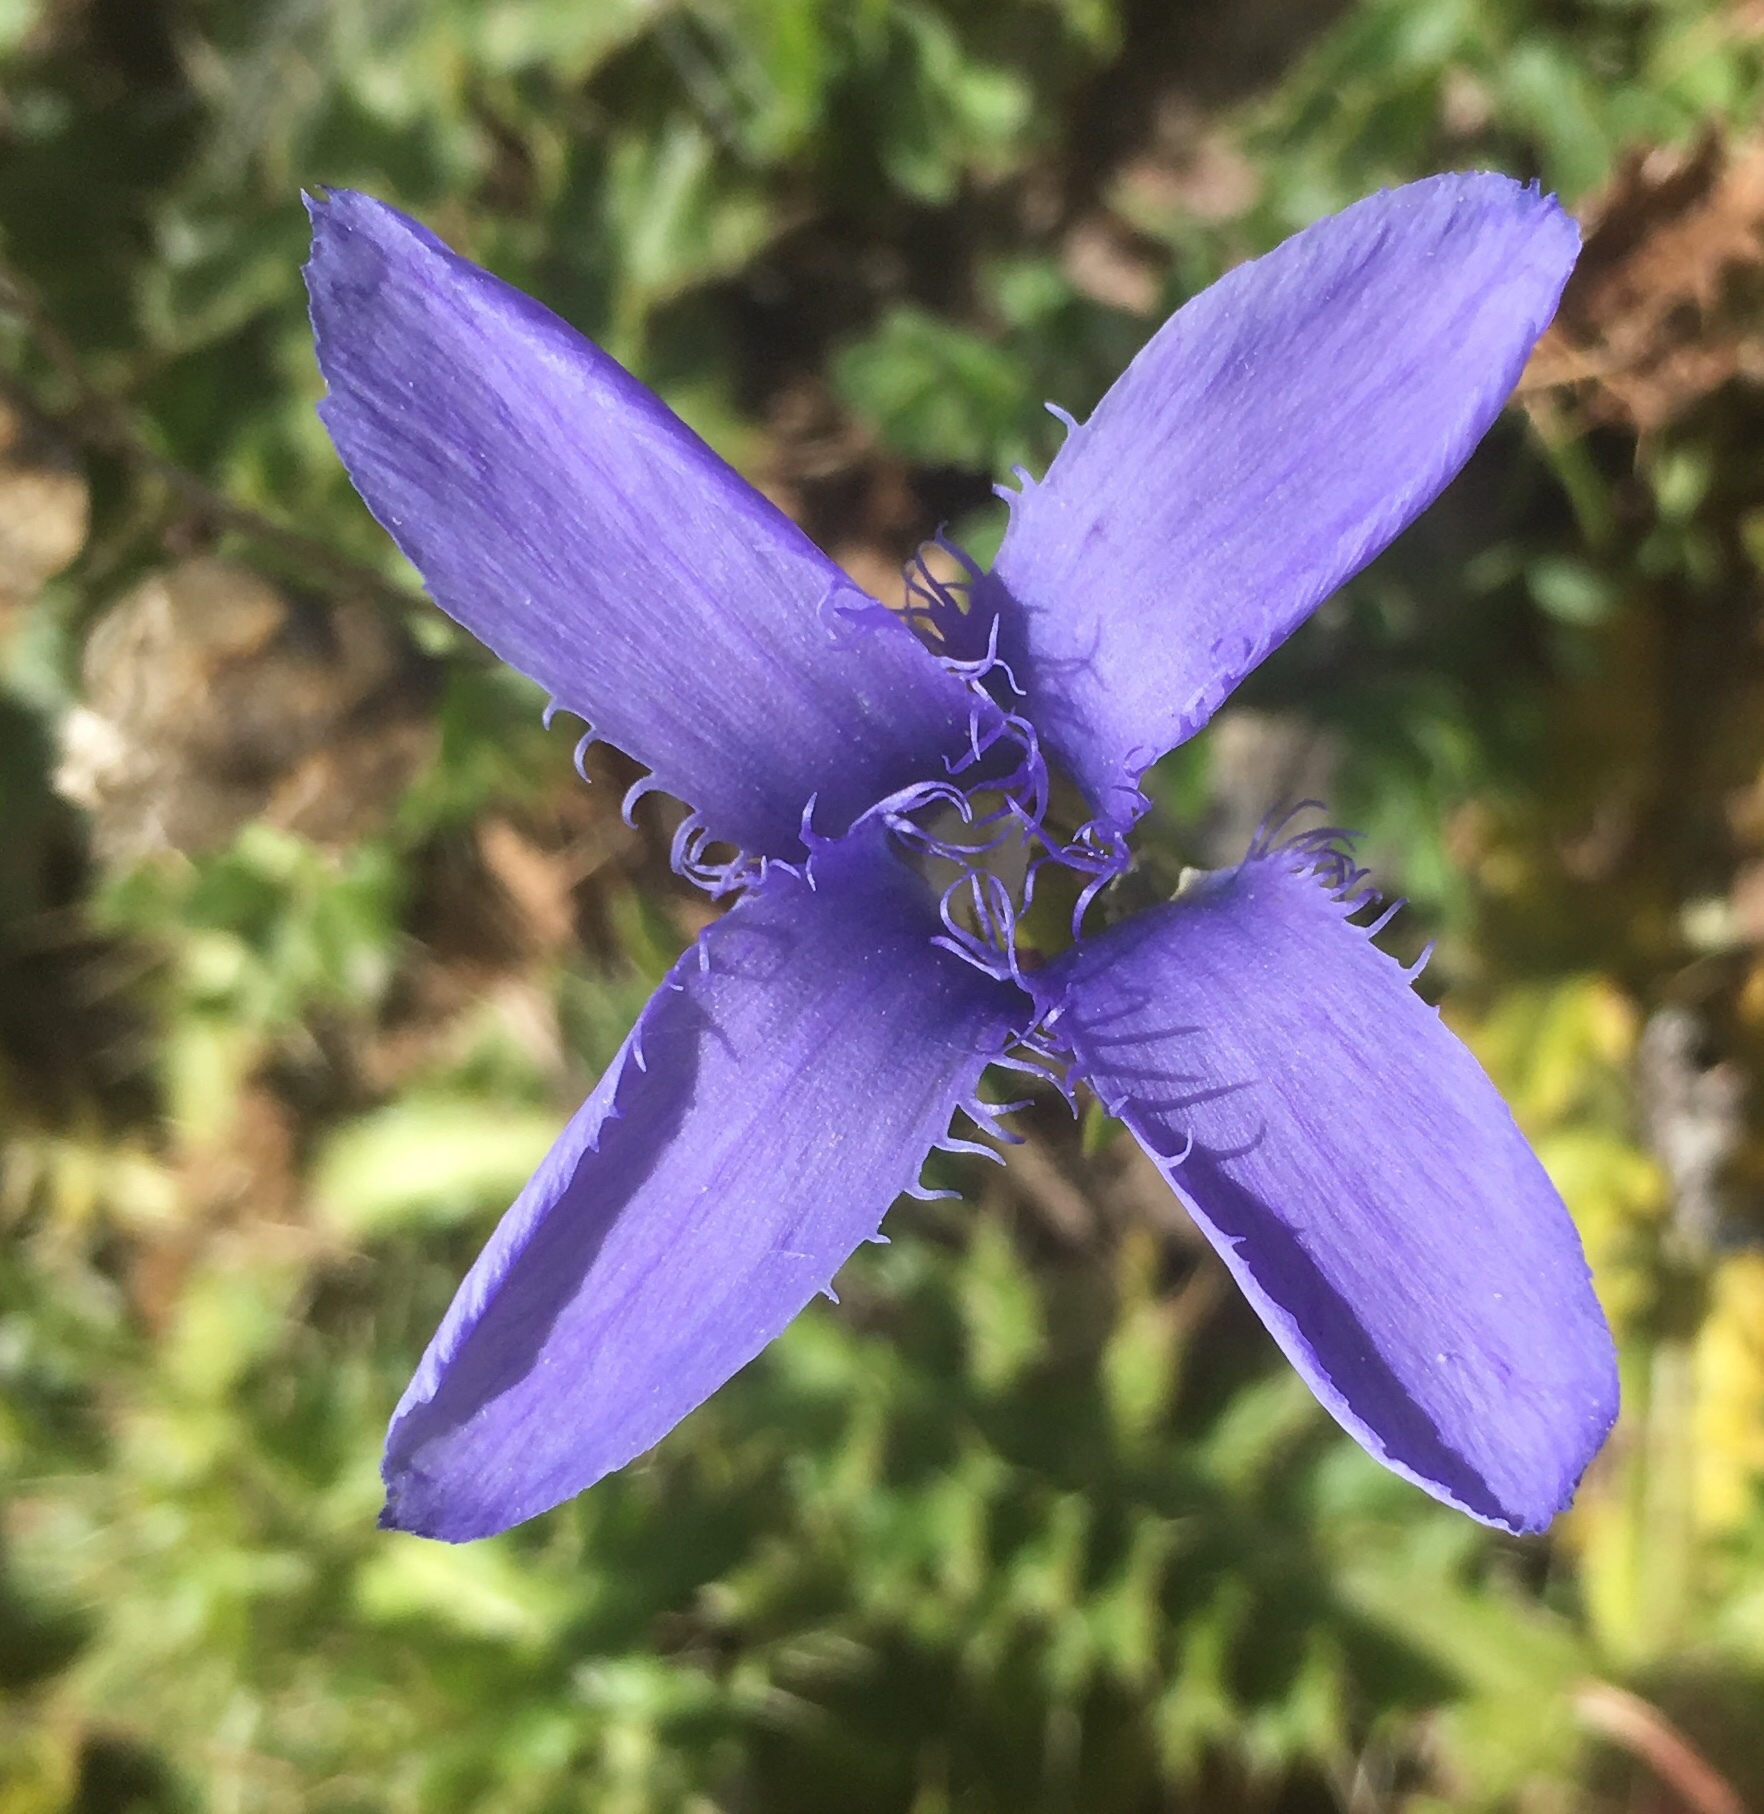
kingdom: Plantae
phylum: Tracheophyta
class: Magnoliopsida
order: Gentianales
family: Gentianaceae
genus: Gentianopsis
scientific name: Gentianopsis ciliata
